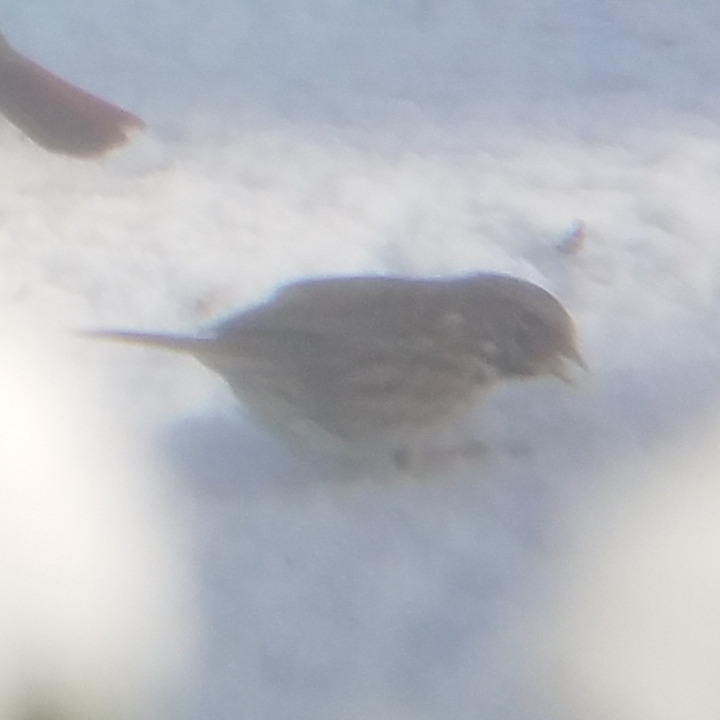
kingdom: Animalia
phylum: Chordata
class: Aves
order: Passeriformes
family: Passerellidae
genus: Melospiza
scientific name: Melospiza melodia
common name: Song sparrow
